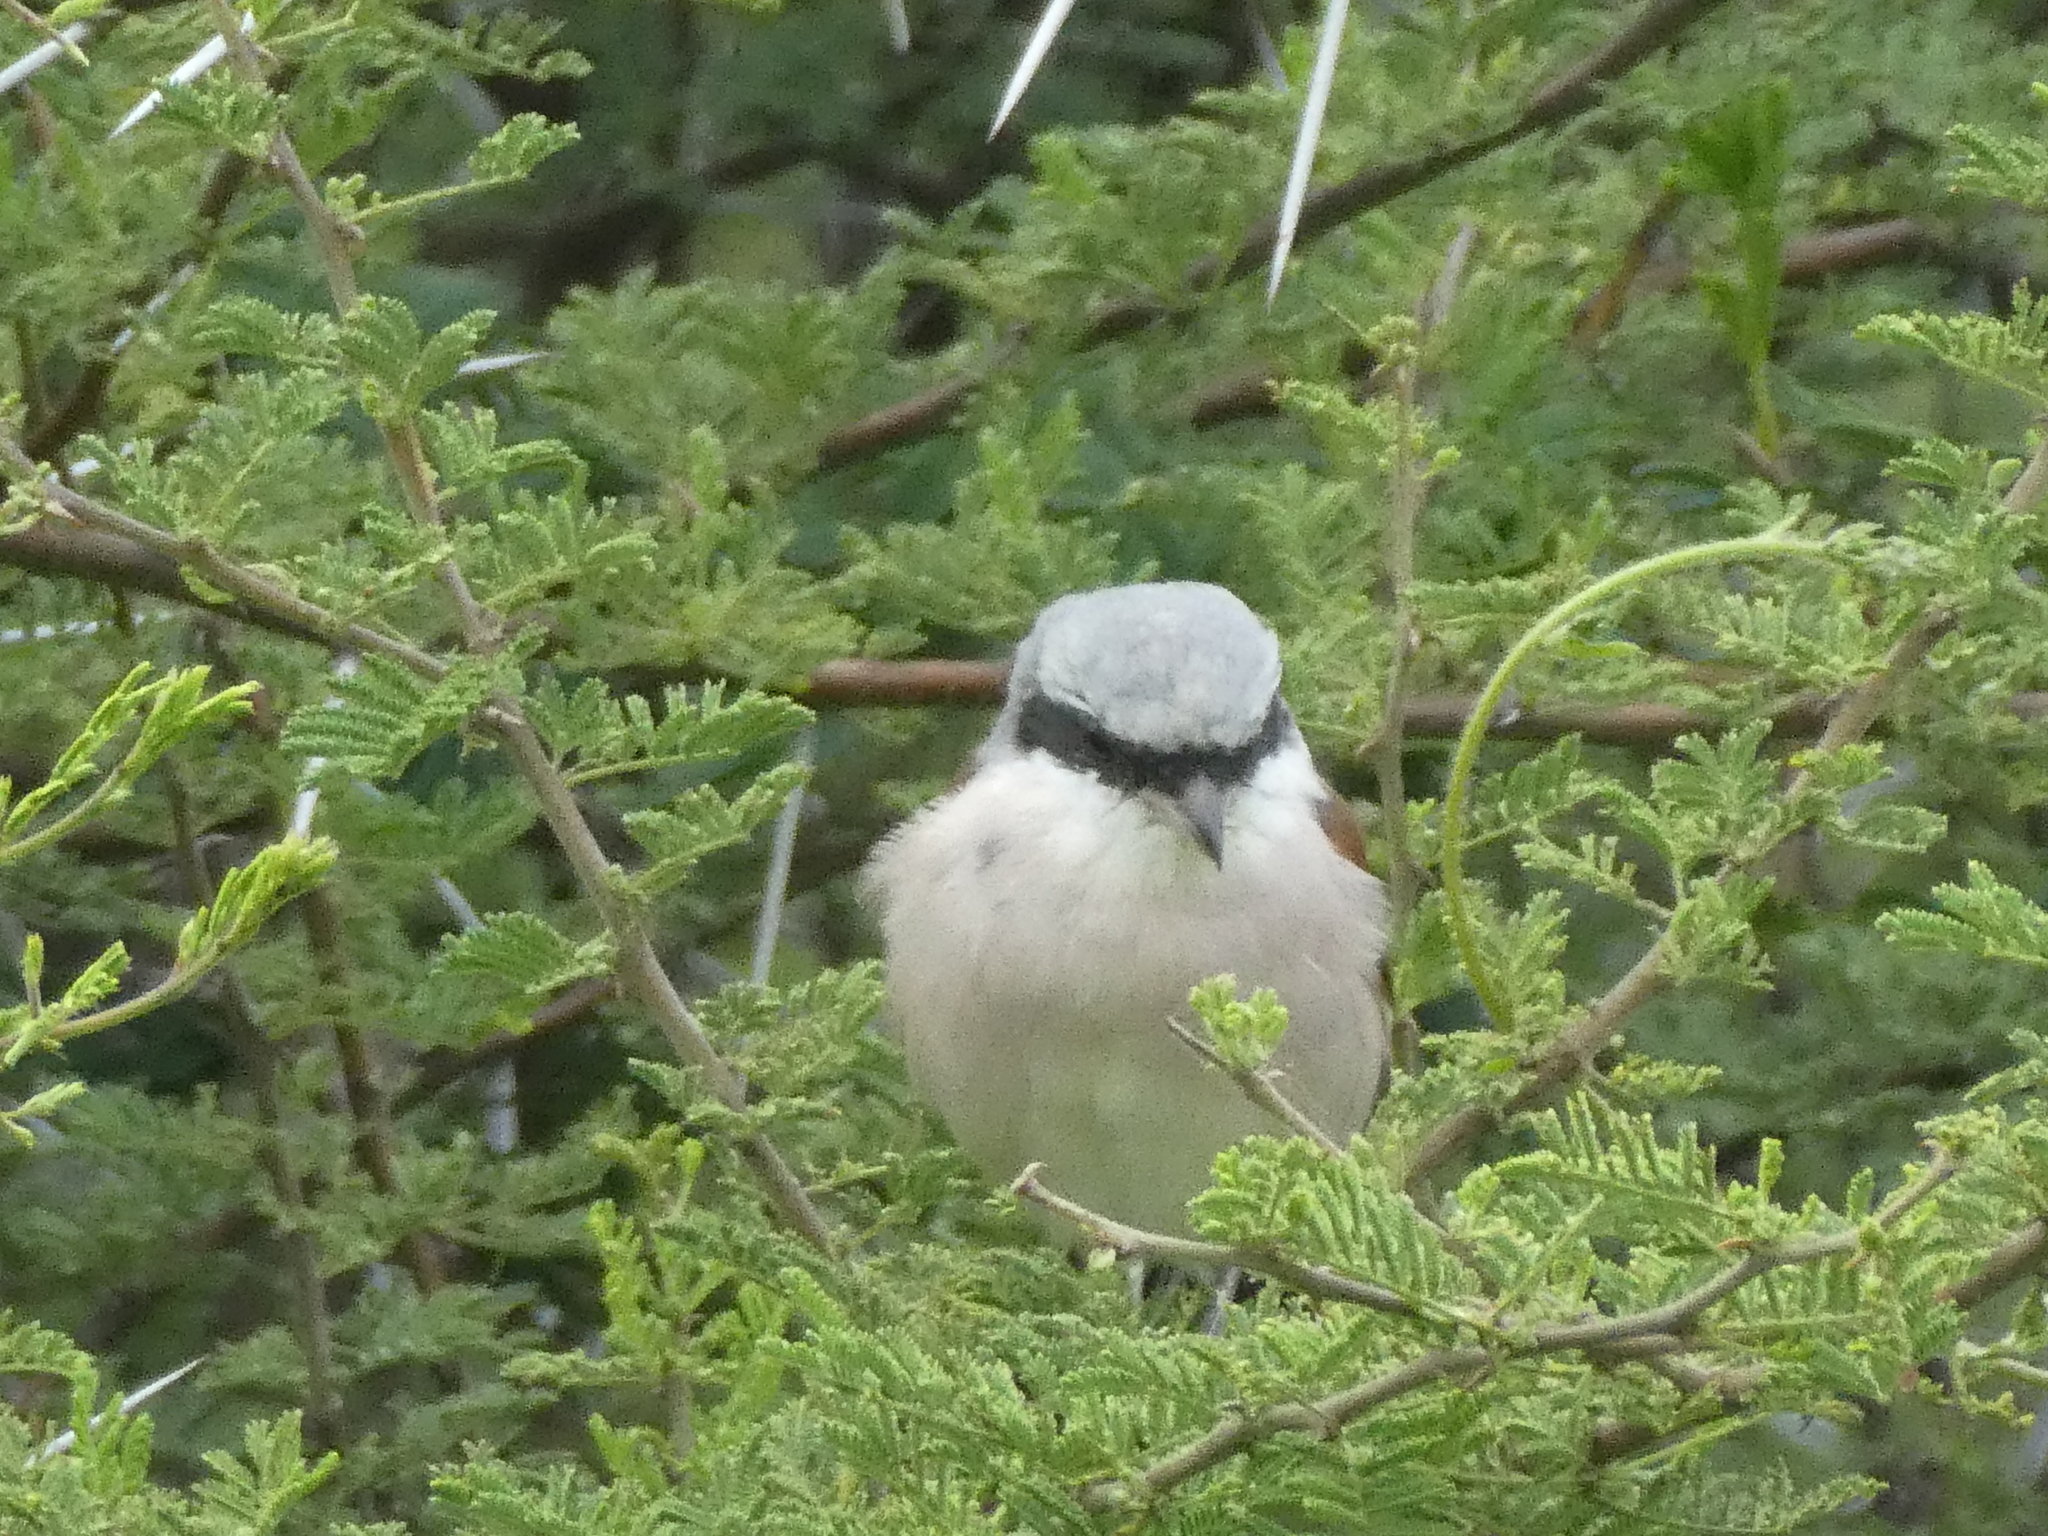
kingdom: Animalia
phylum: Chordata
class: Aves
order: Passeriformes
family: Laniidae
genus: Lanius
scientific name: Lanius collurio
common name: Red-backed shrike
